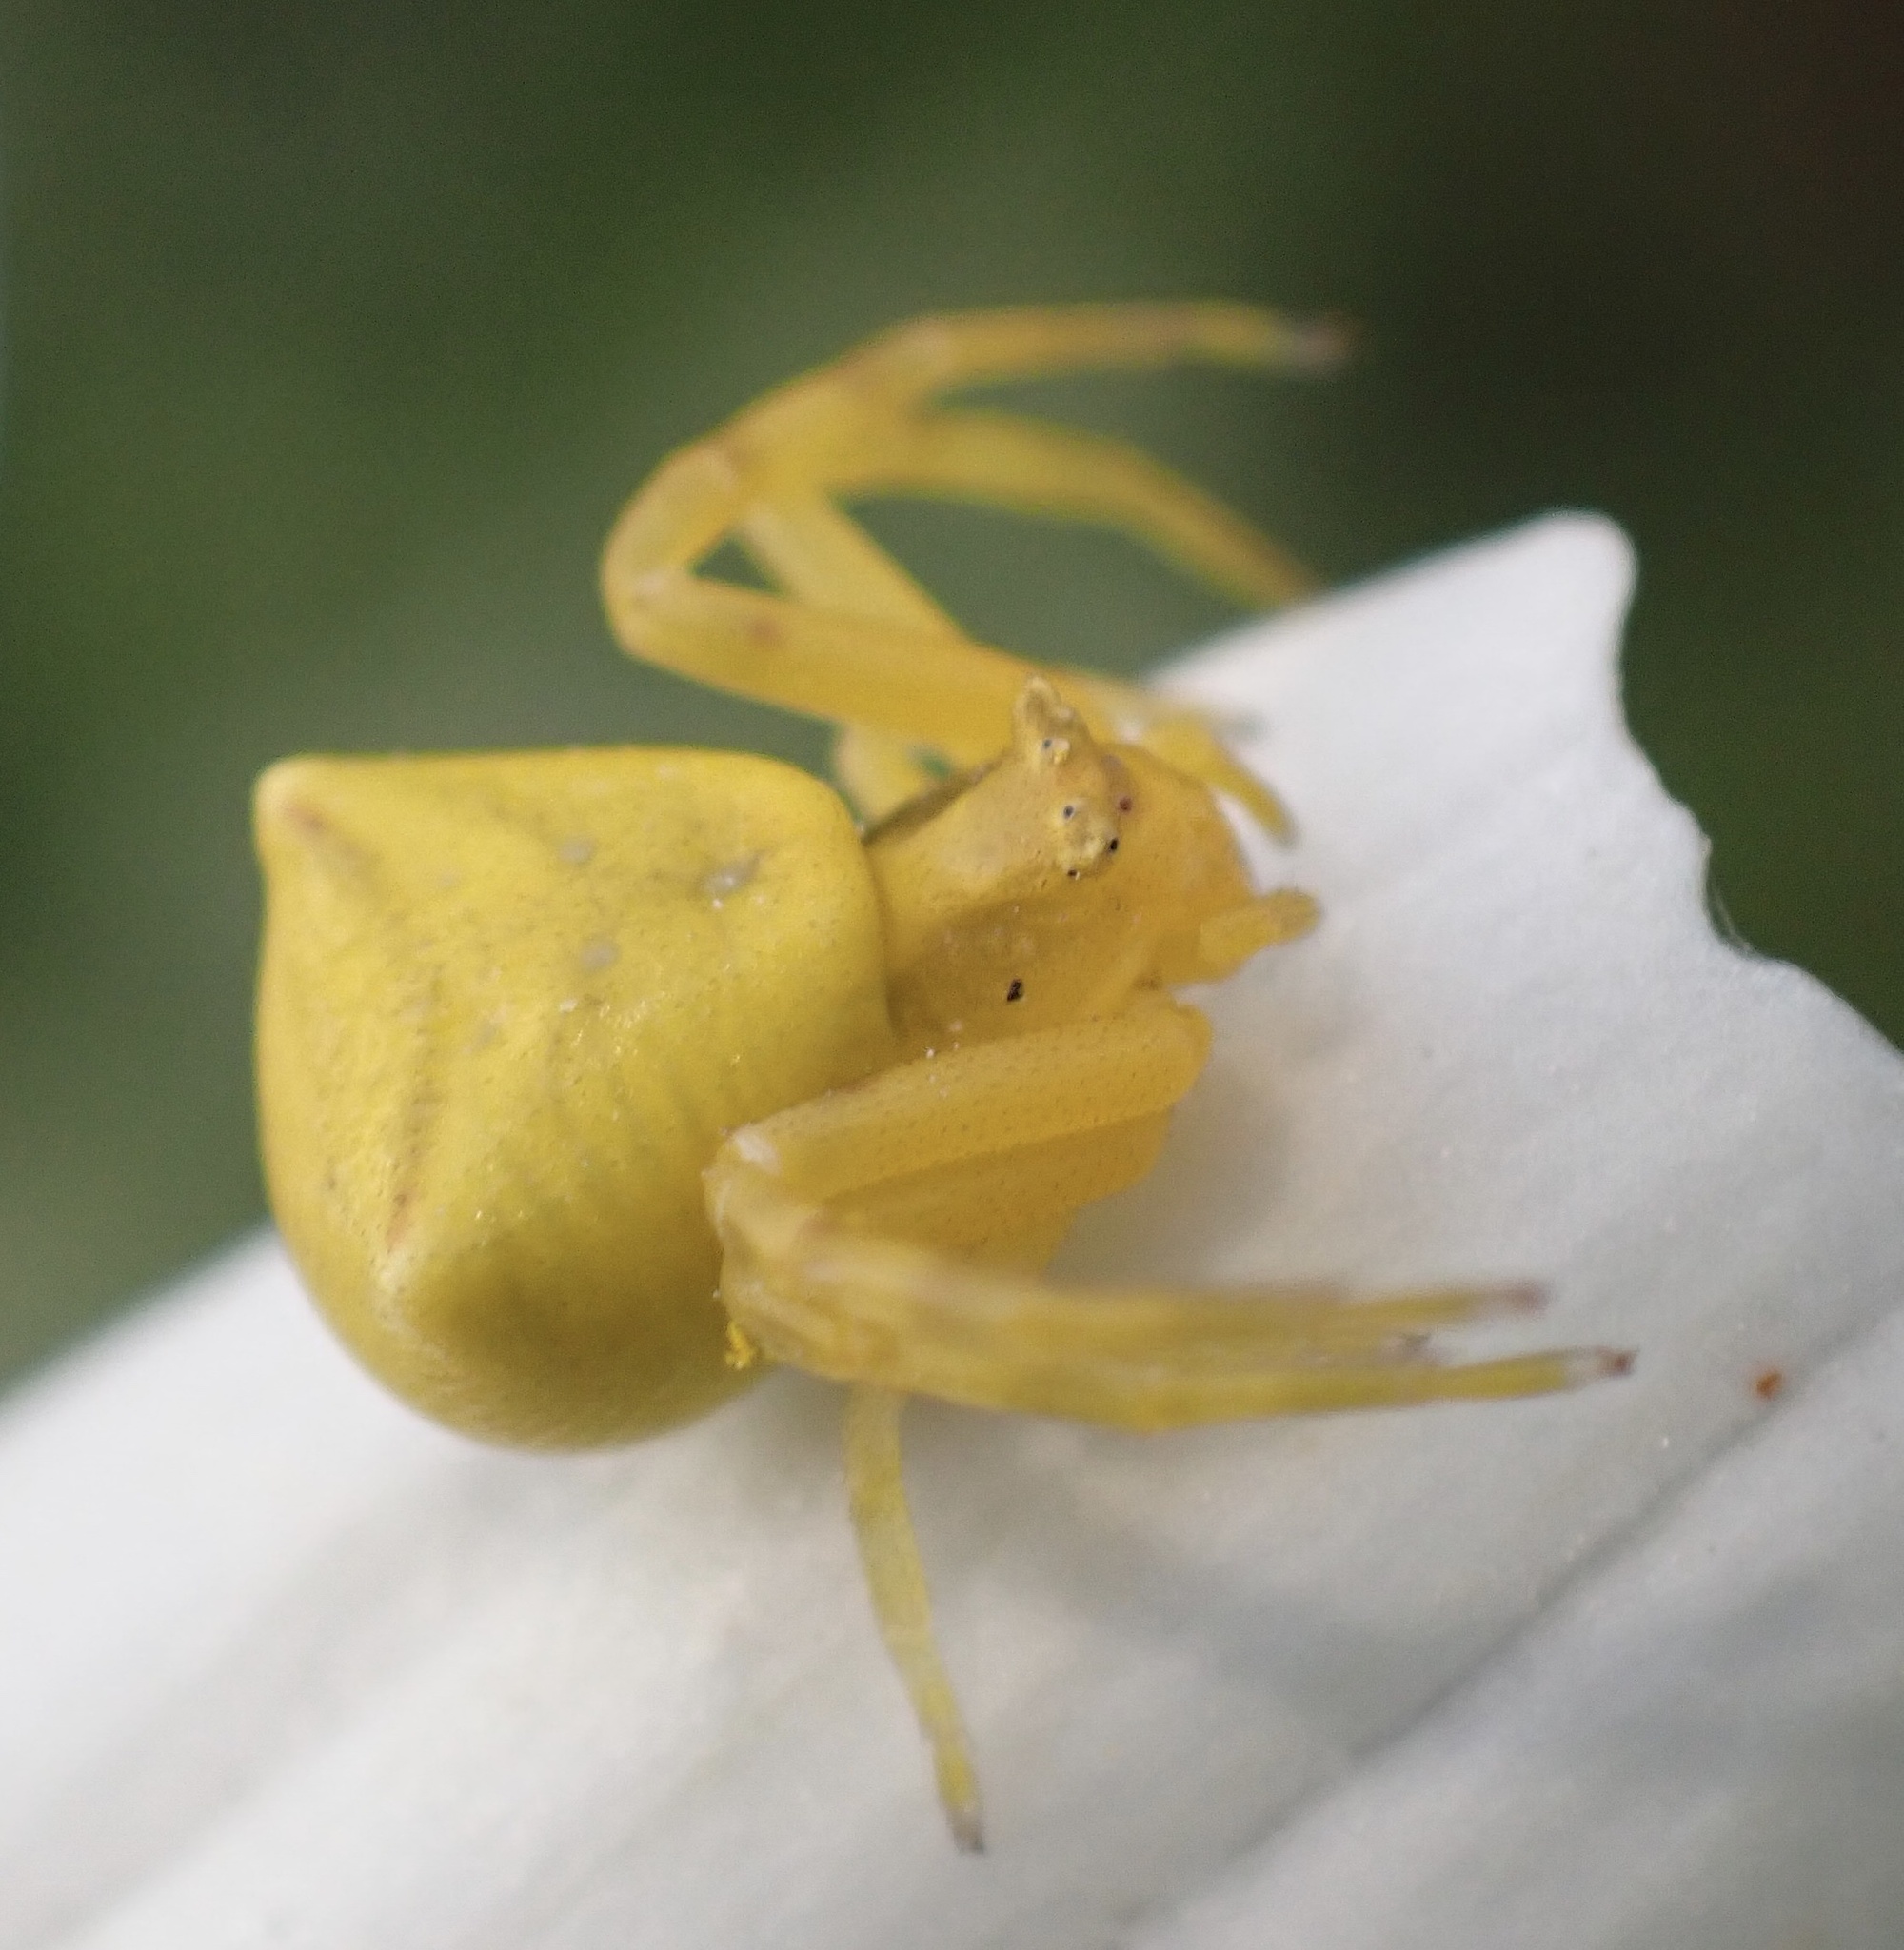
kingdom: Animalia
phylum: Arthropoda
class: Arachnida
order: Araneae
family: Thomisidae
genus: Thomisus
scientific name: Thomisus onustus
